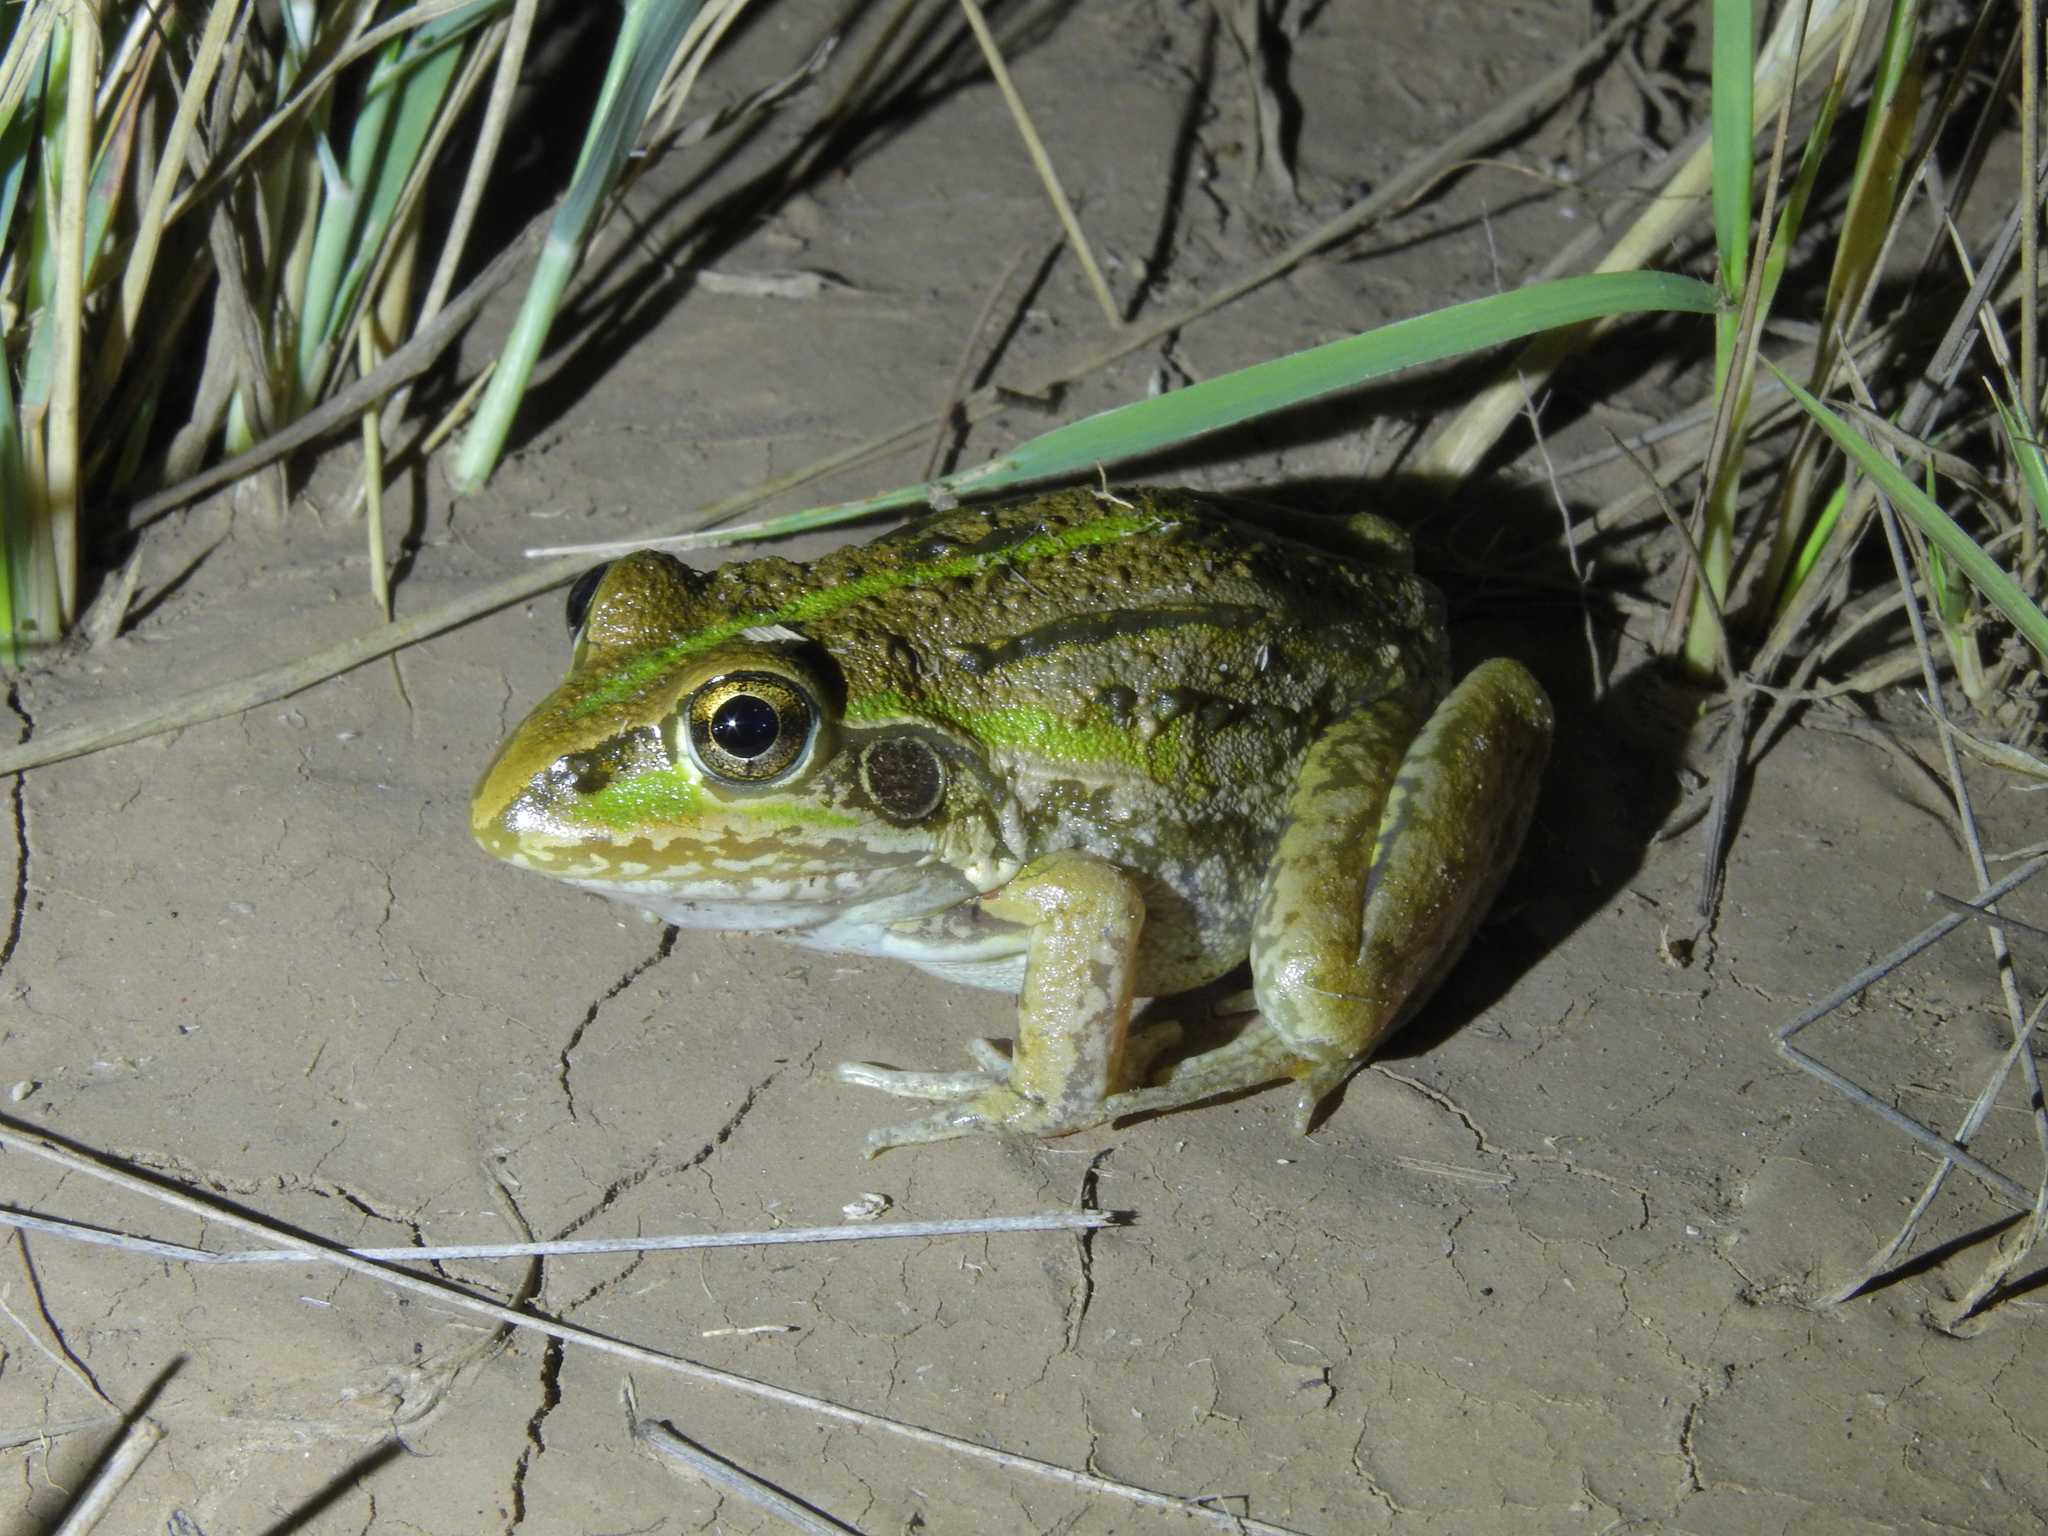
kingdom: Animalia
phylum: Chordata
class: Amphibia
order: Anura
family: Pelodryadidae
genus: Ranoidea
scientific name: Ranoidea alboguttata
